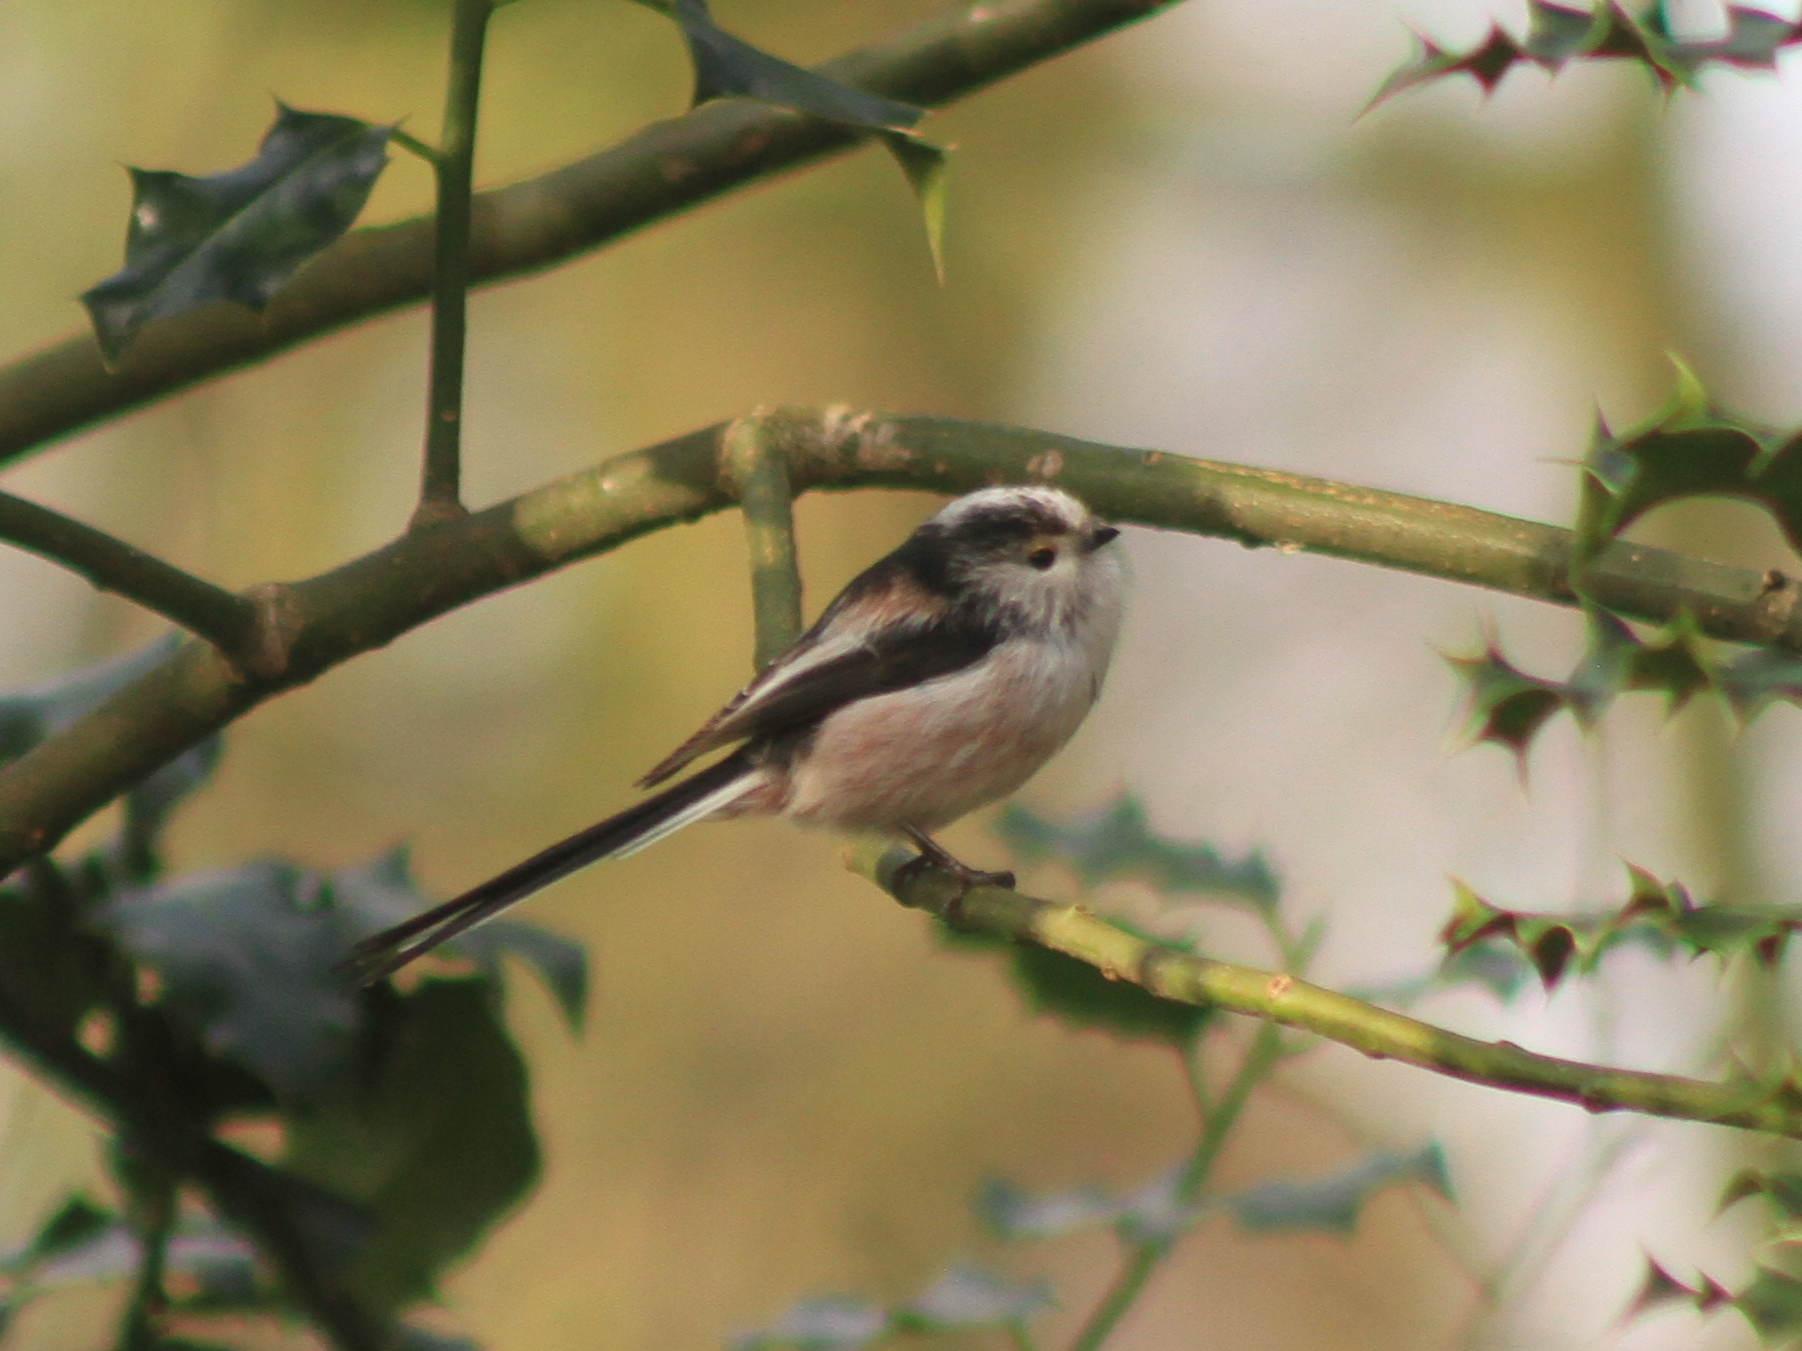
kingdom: Animalia
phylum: Chordata
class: Aves
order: Passeriformes
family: Aegithalidae
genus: Aegithalos
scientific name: Aegithalos caudatus
